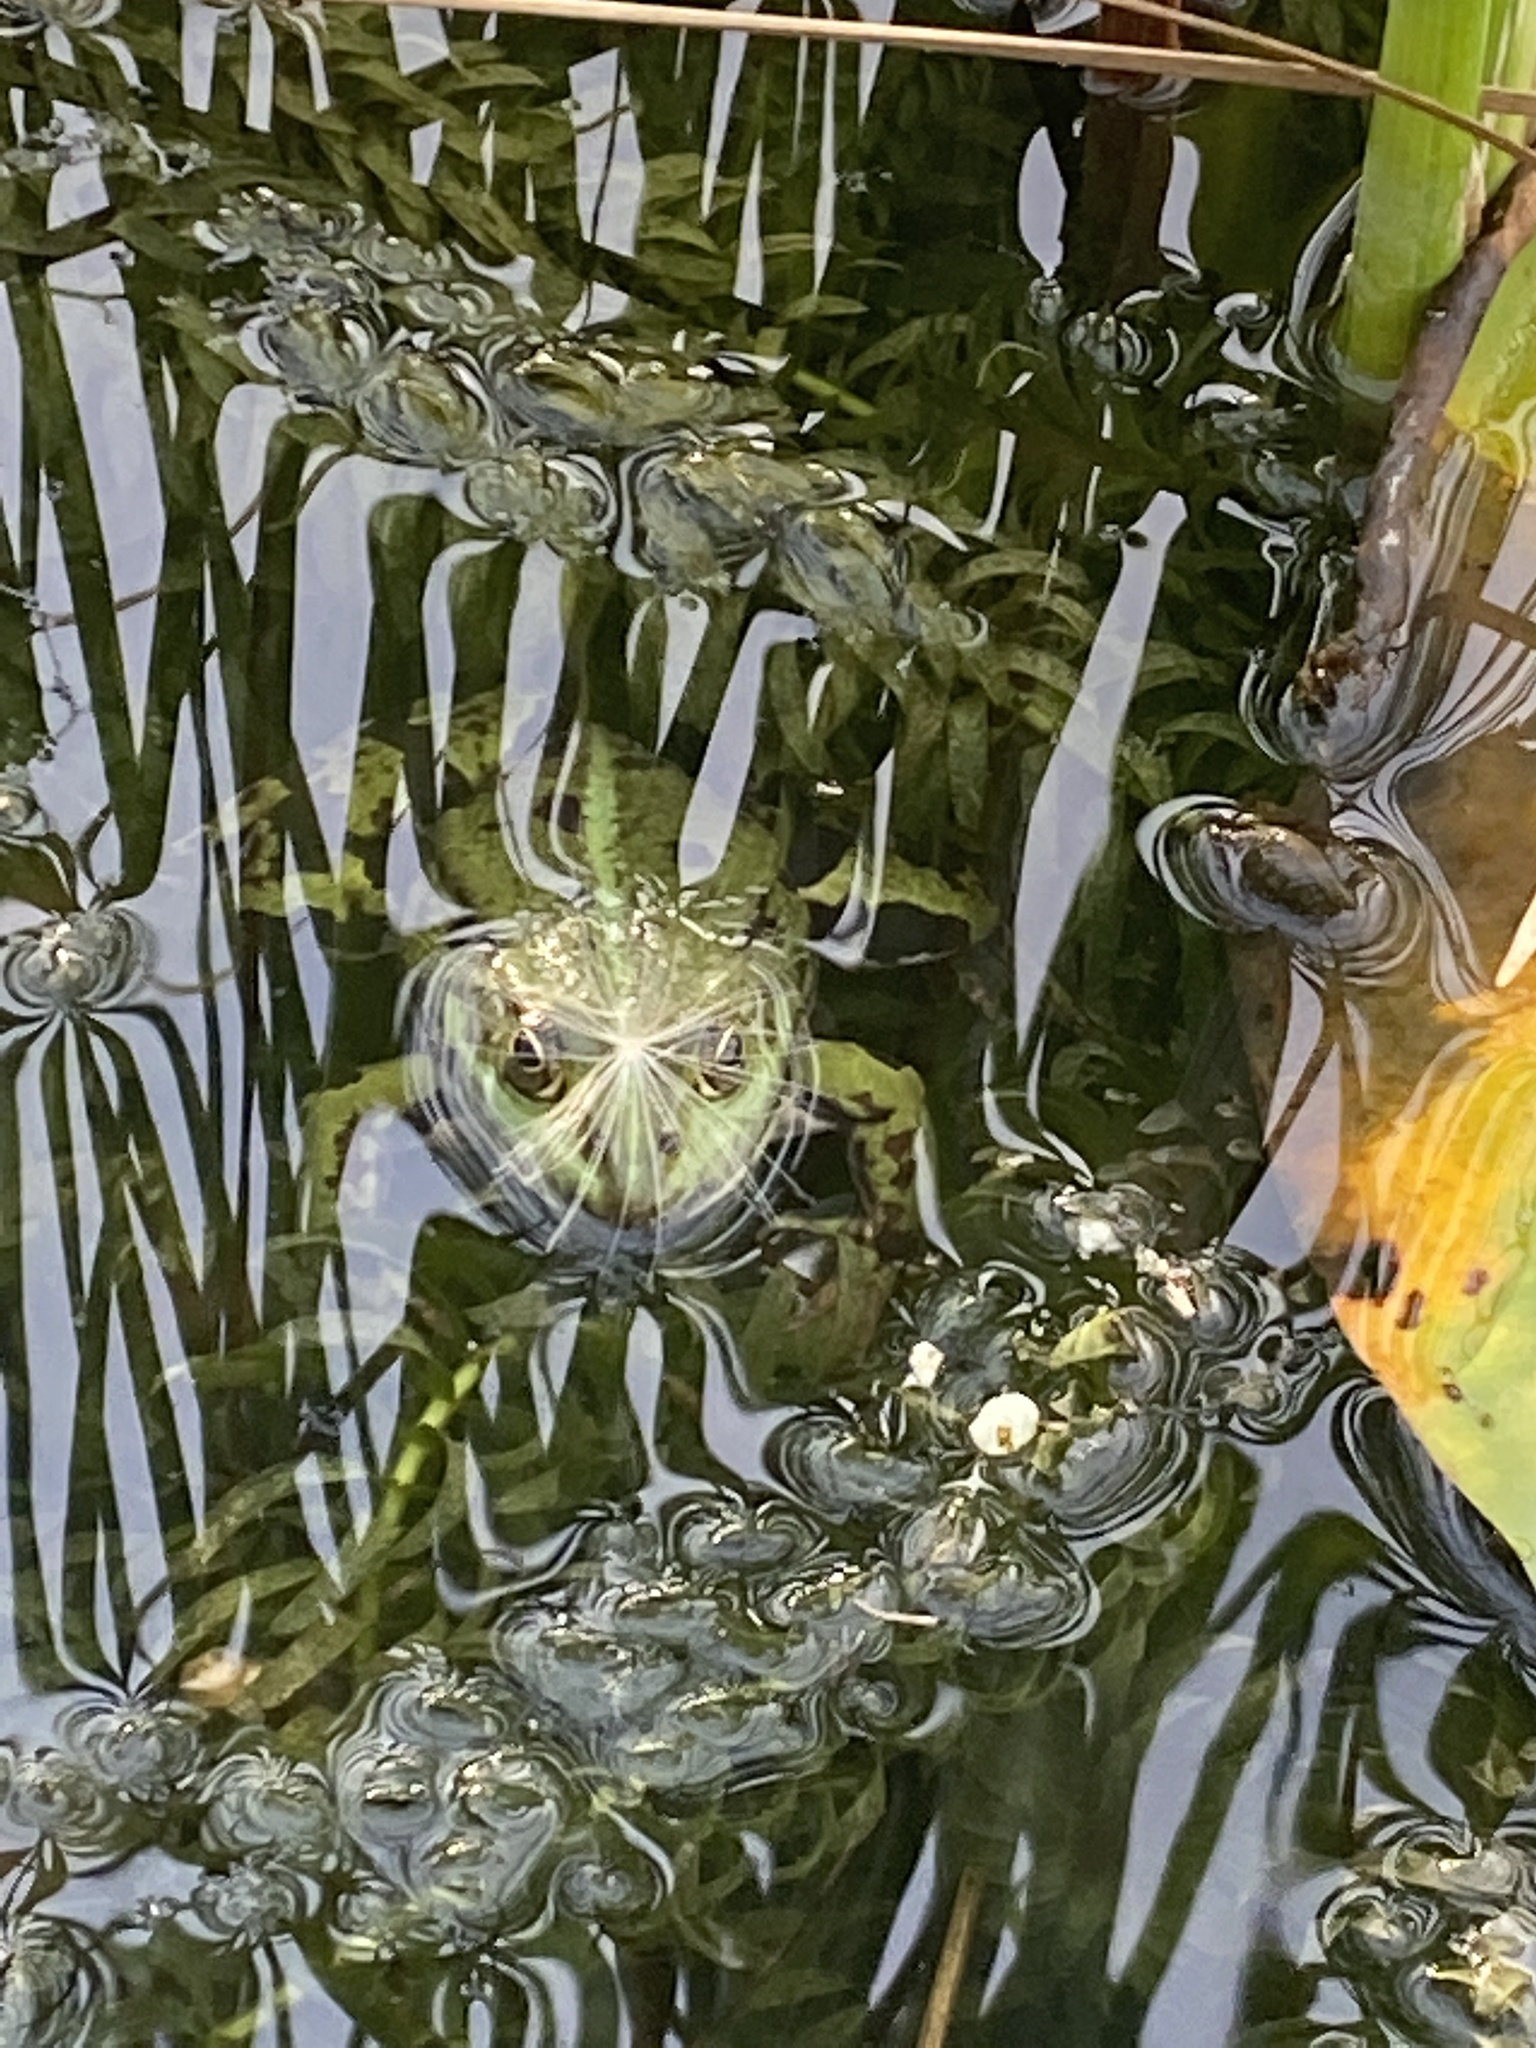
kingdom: Animalia
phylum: Chordata
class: Amphibia
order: Anura
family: Ranidae
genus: Pelophylax
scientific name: Pelophylax
